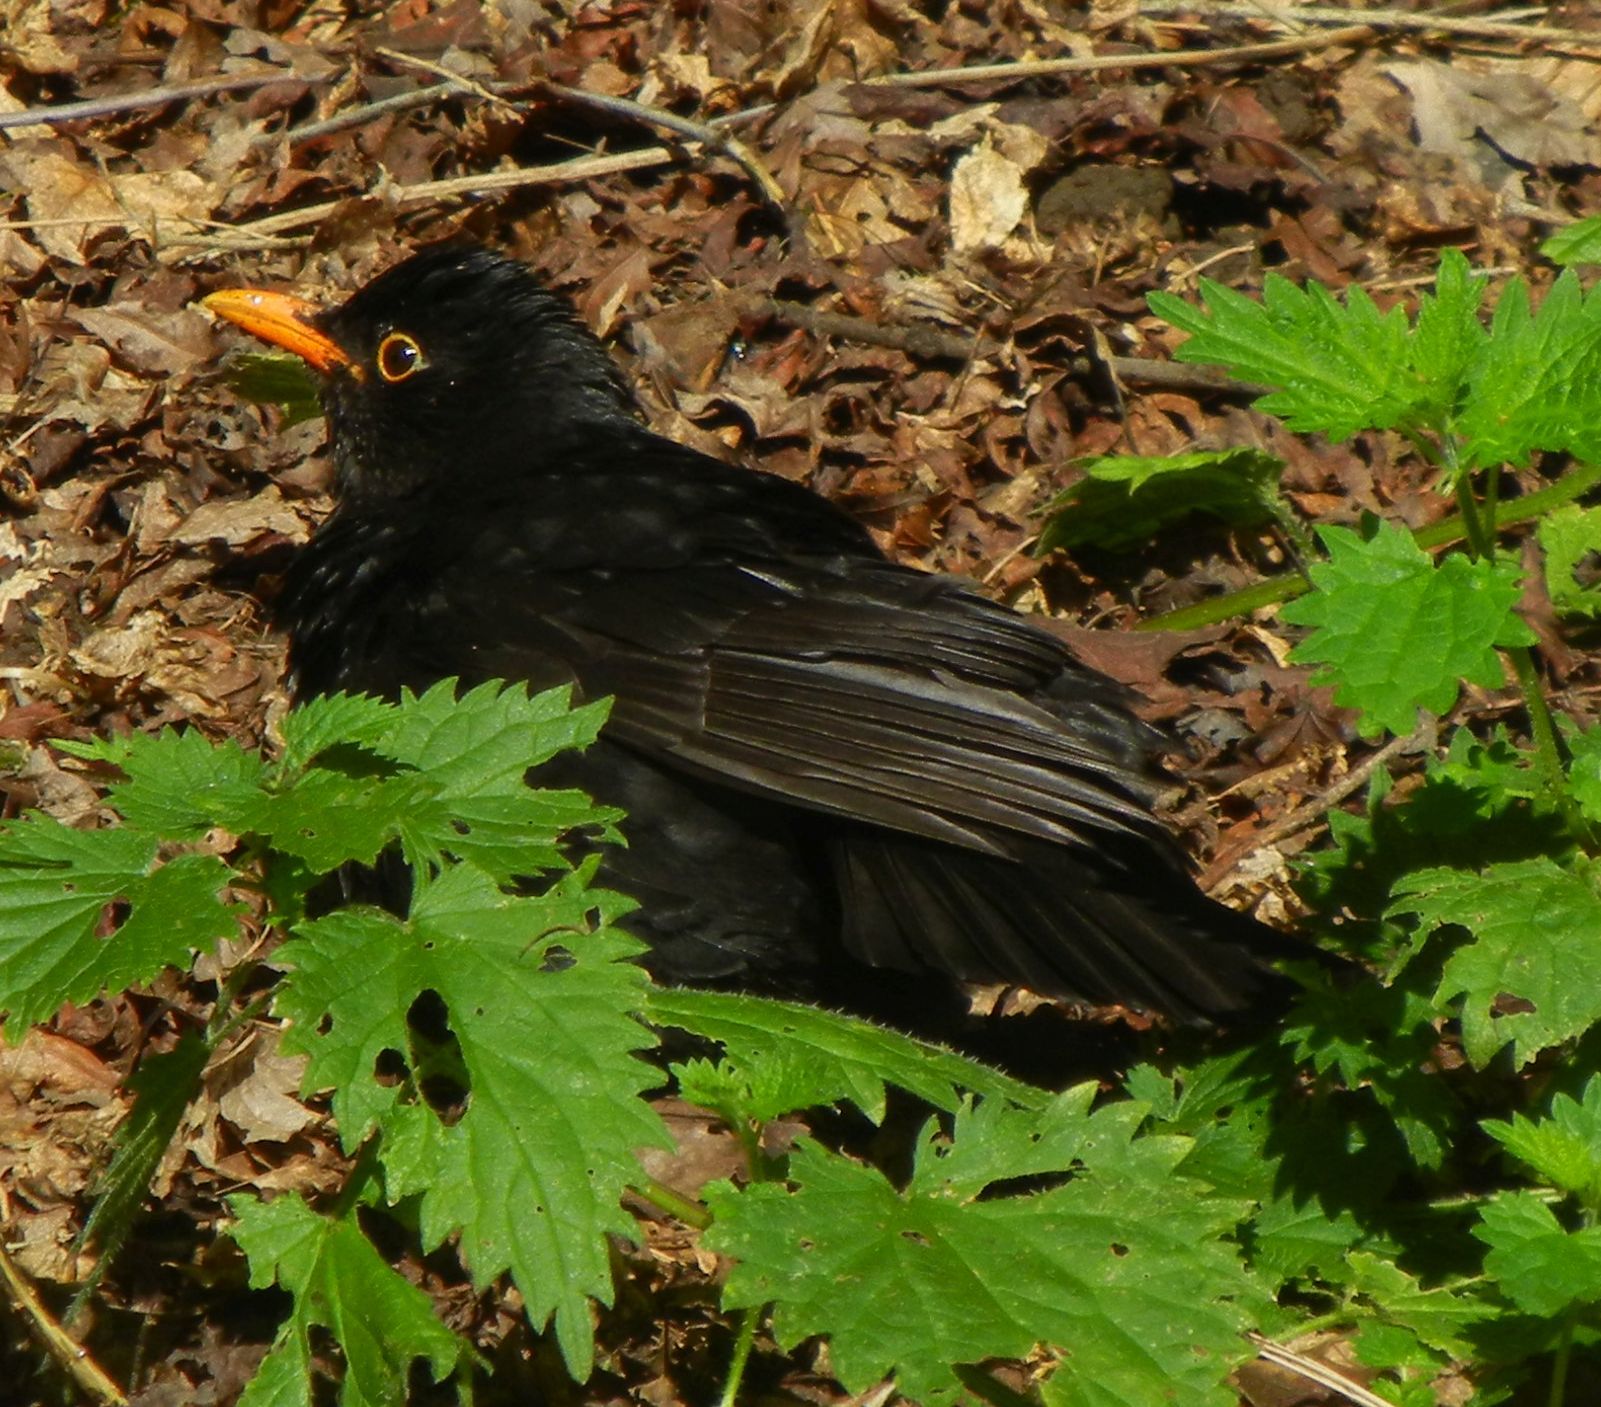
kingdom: Animalia
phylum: Chordata
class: Aves
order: Passeriformes
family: Turdidae
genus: Turdus
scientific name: Turdus merula
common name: Common blackbird
